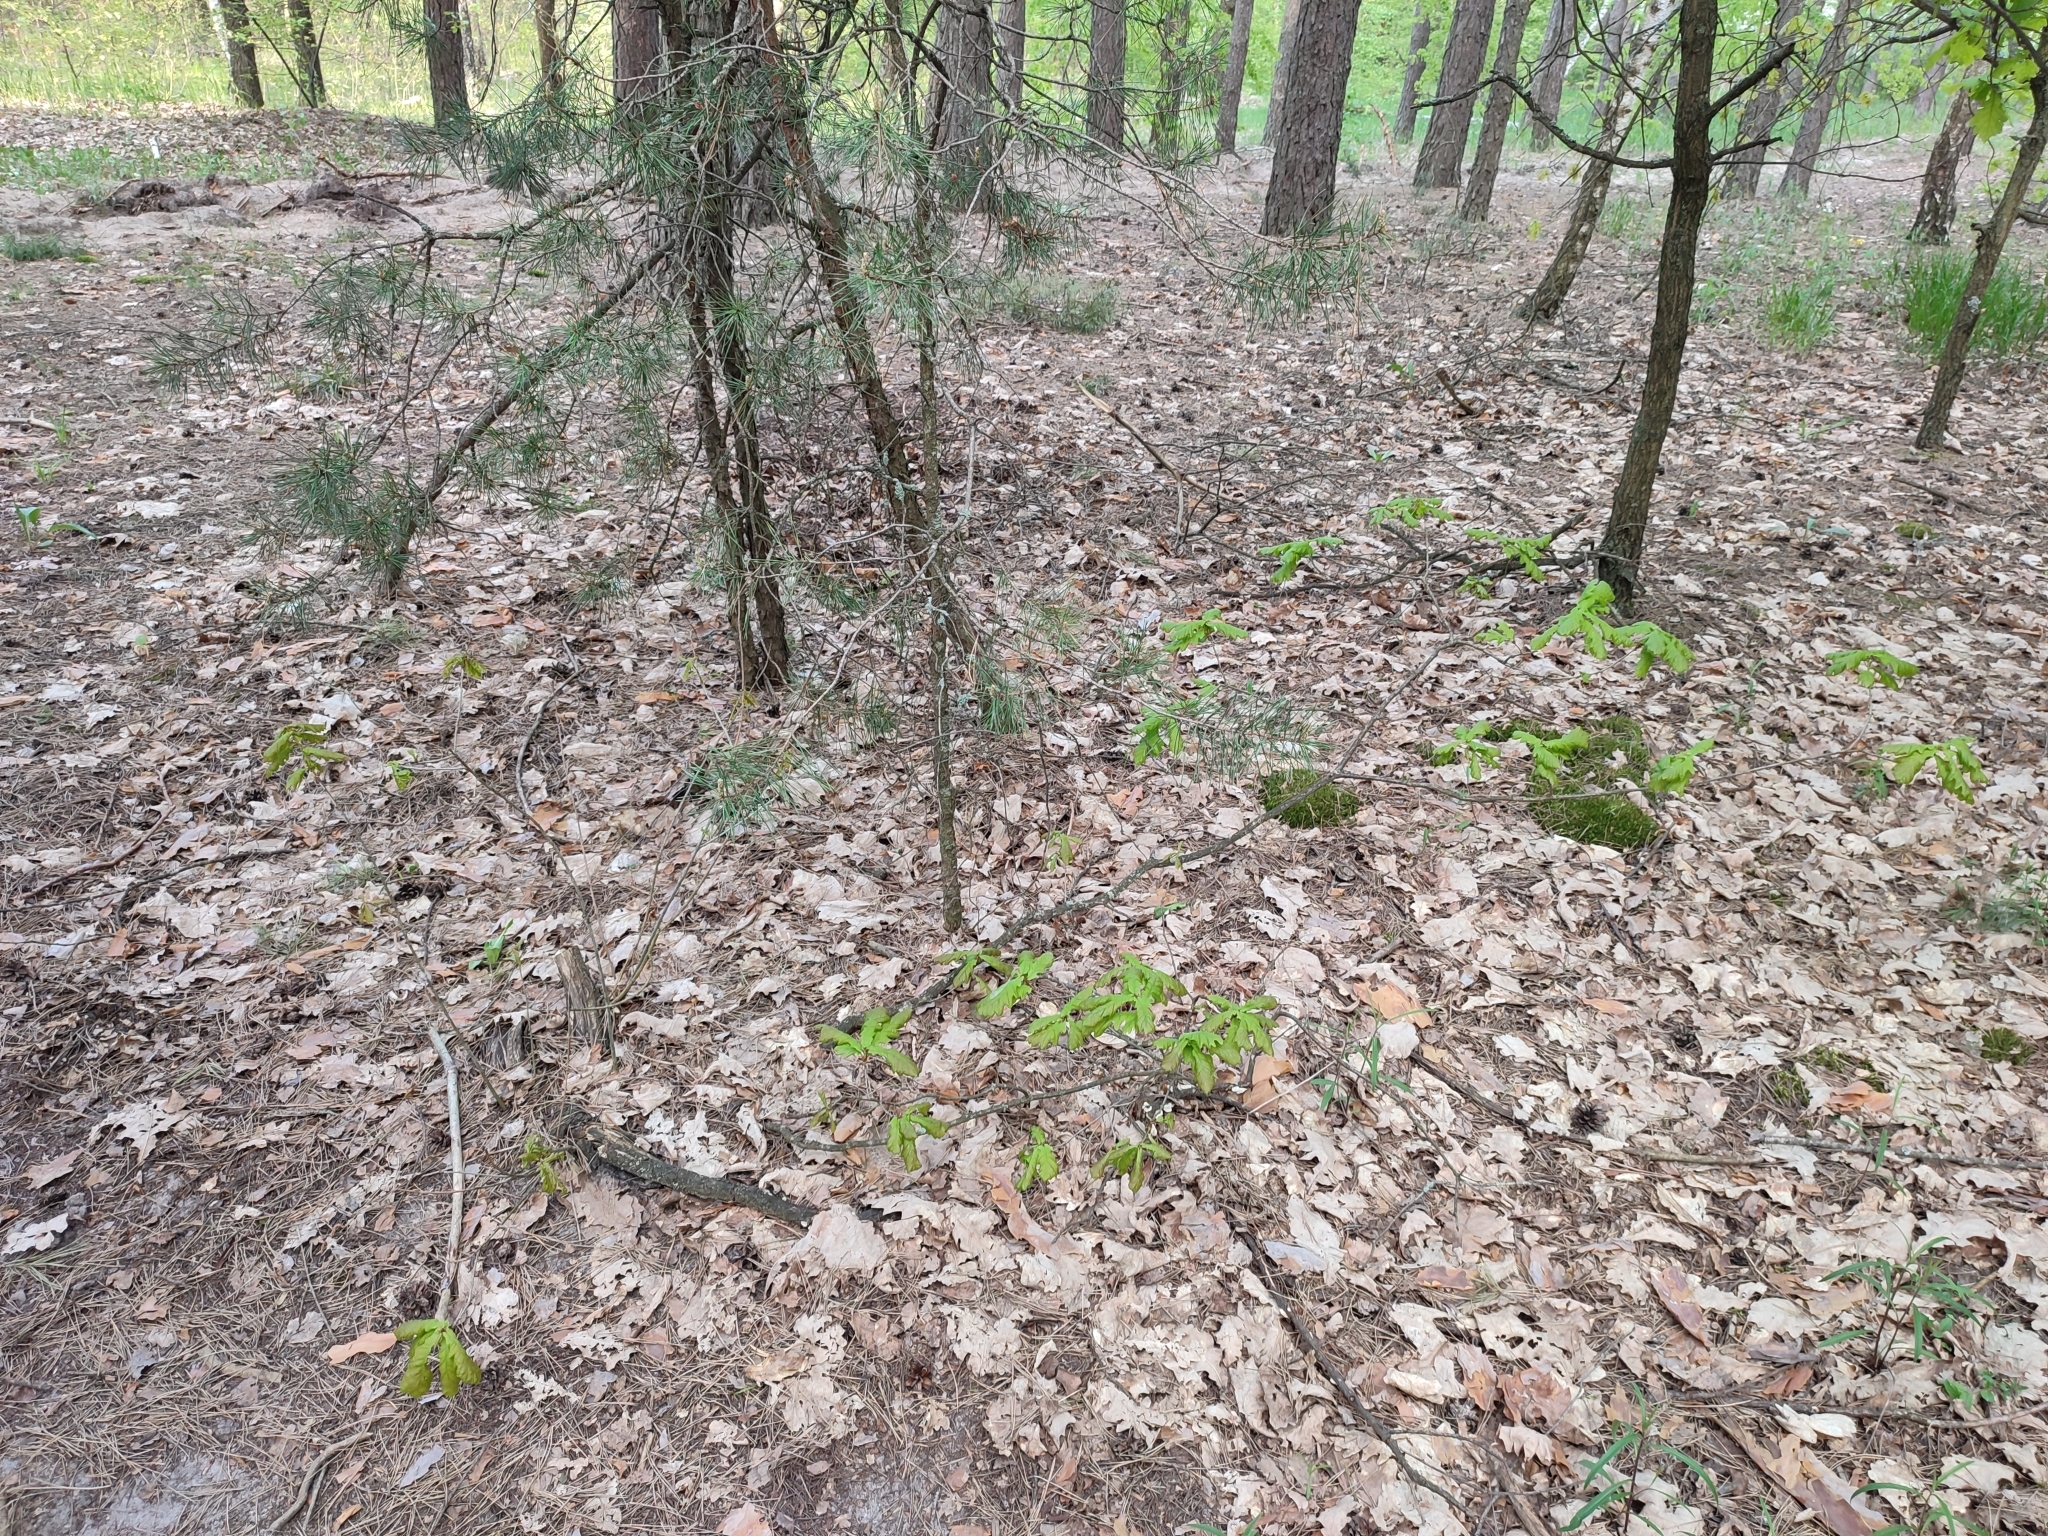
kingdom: Plantae
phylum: Tracheophyta
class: Magnoliopsida
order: Fagales
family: Fagaceae
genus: Quercus
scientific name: Quercus robur
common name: Pedunculate oak
